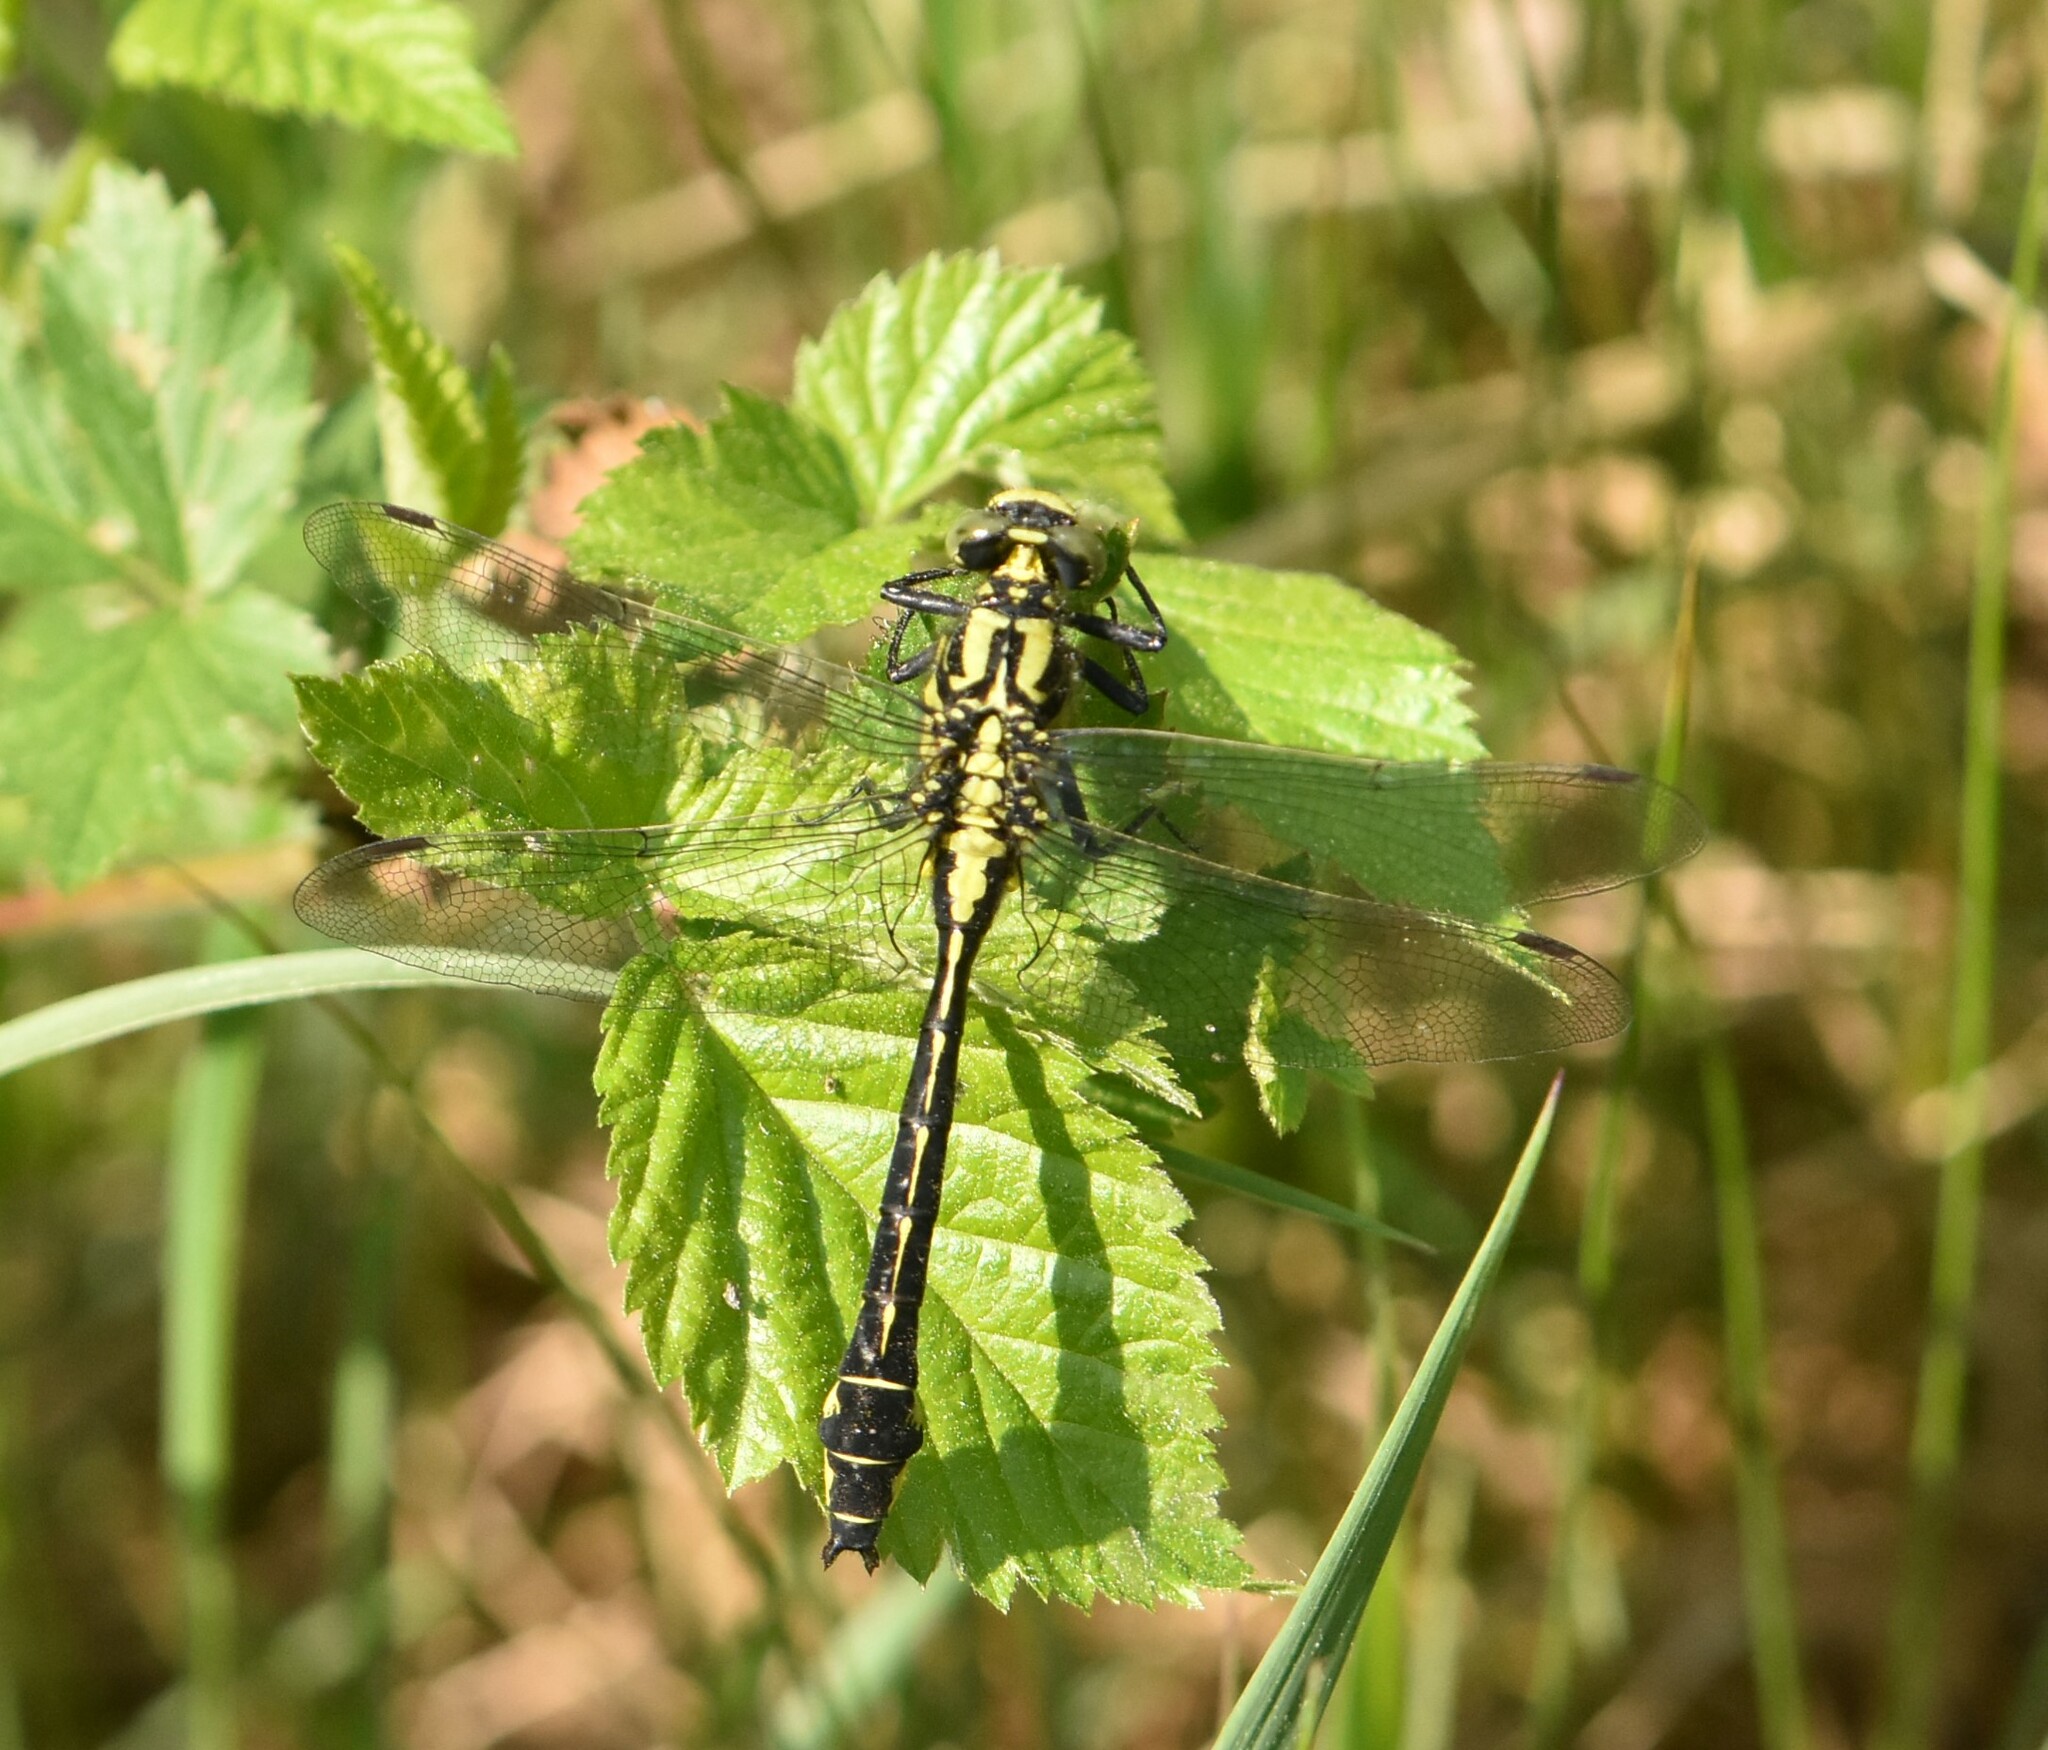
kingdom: Animalia
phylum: Arthropoda
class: Insecta
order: Odonata
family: Gomphidae
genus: Gomphus
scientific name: Gomphus vulgatissimus
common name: Club-tailed dragonfly
